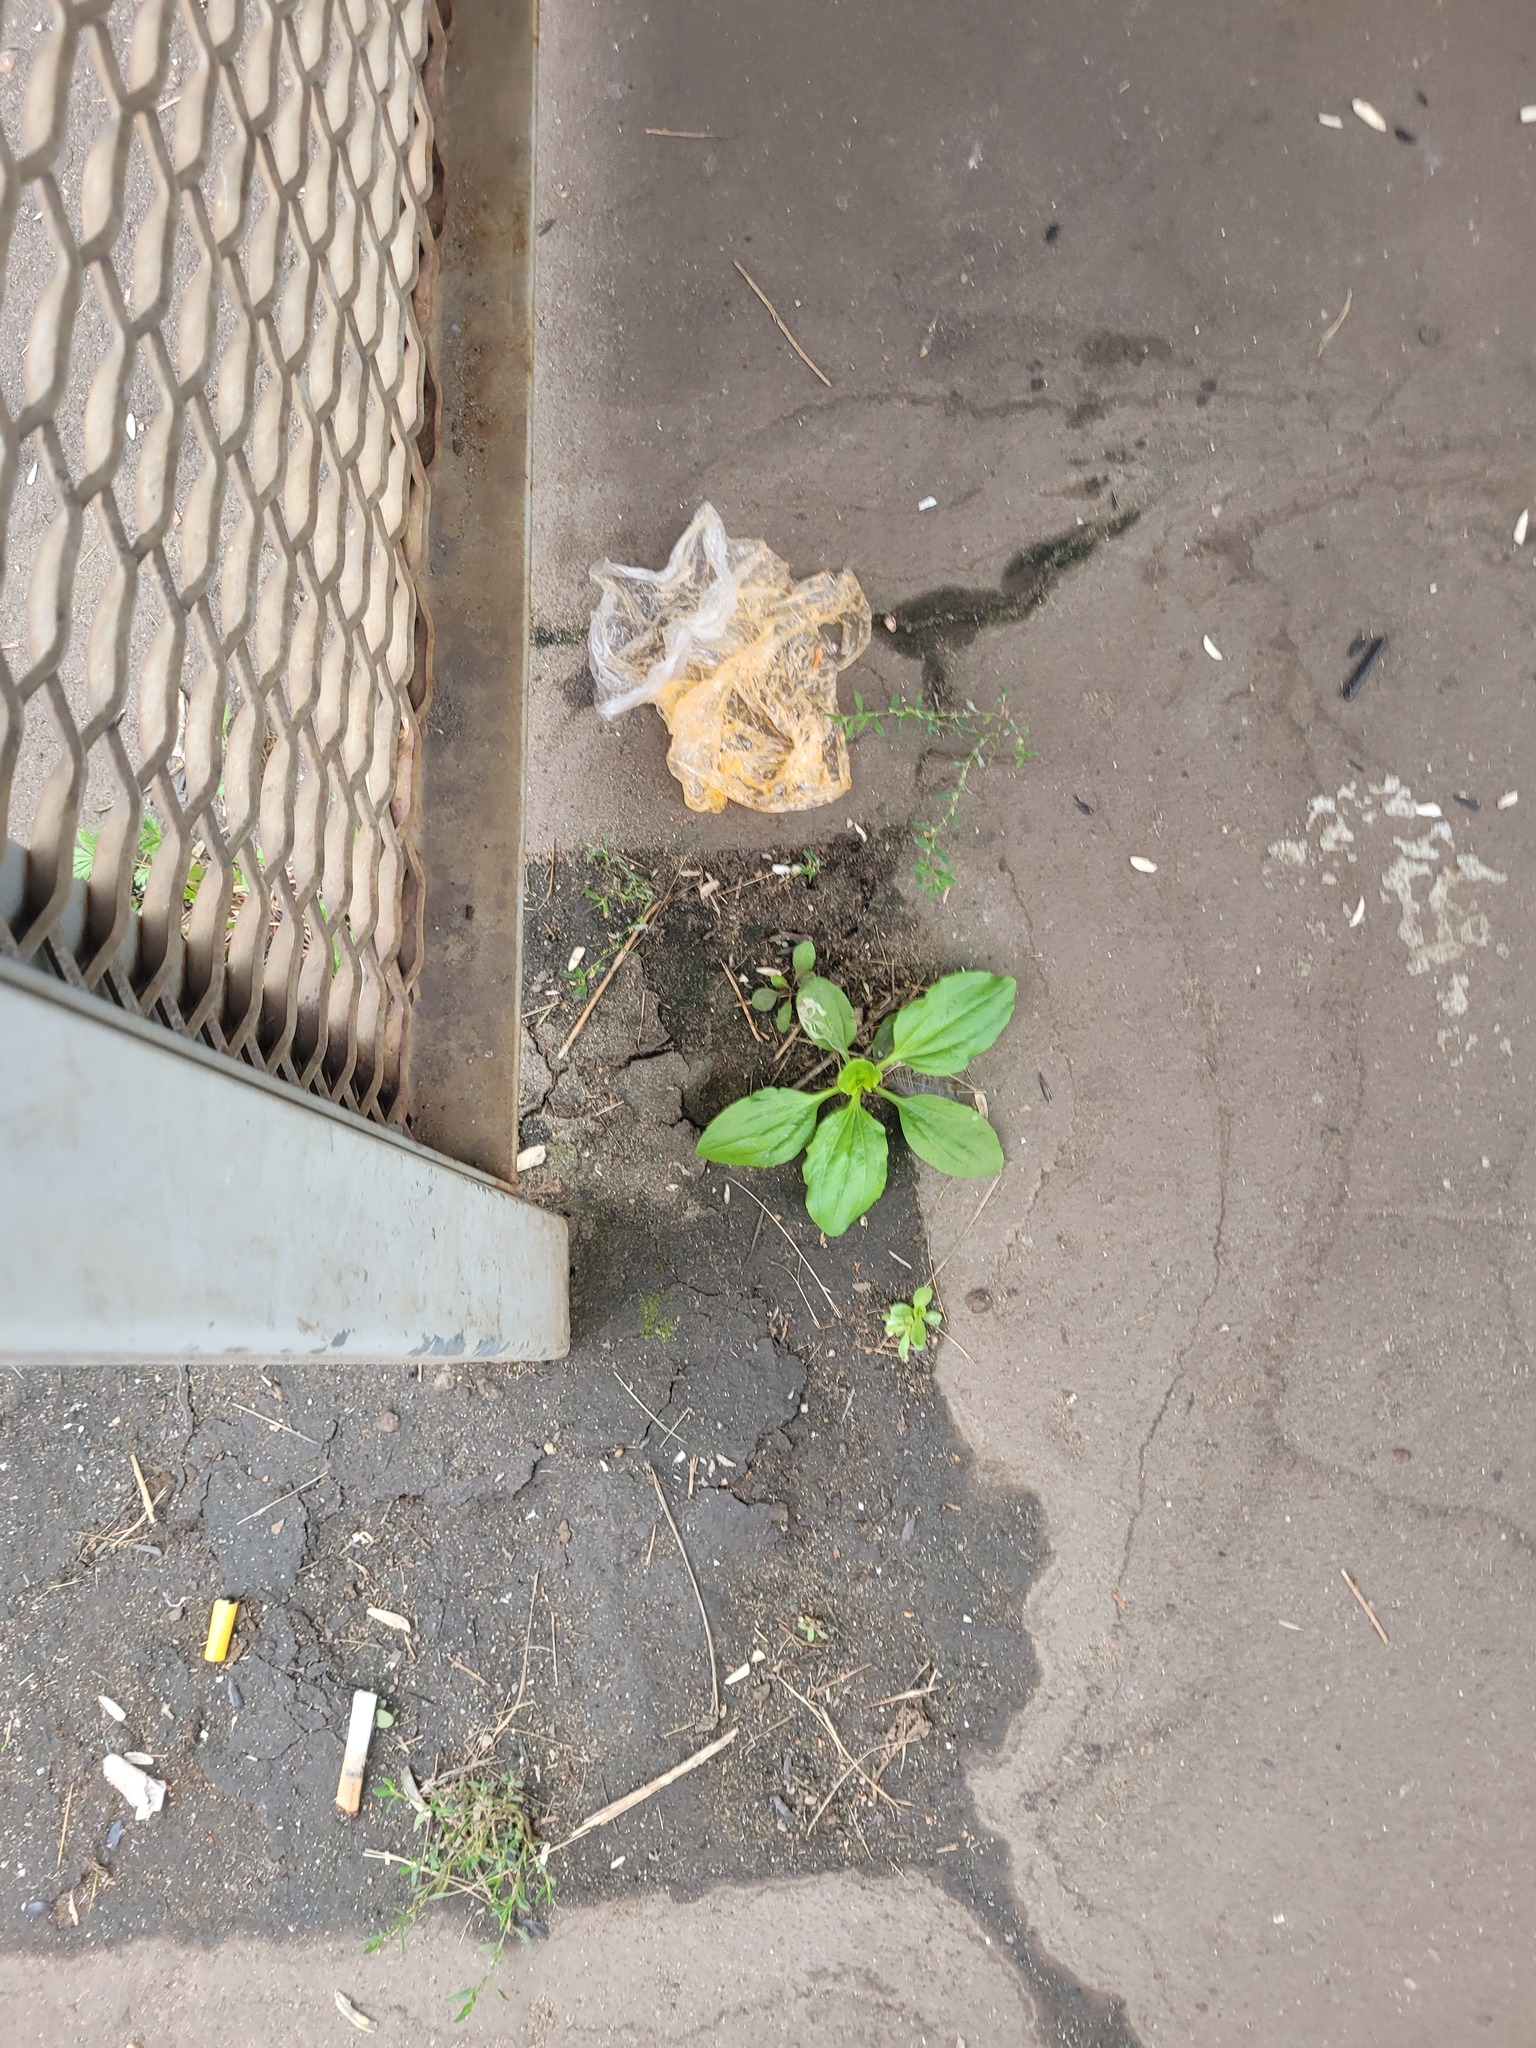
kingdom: Plantae
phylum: Tracheophyta
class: Magnoliopsida
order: Lamiales
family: Plantaginaceae
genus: Plantago
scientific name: Plantago major
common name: Common plantain
